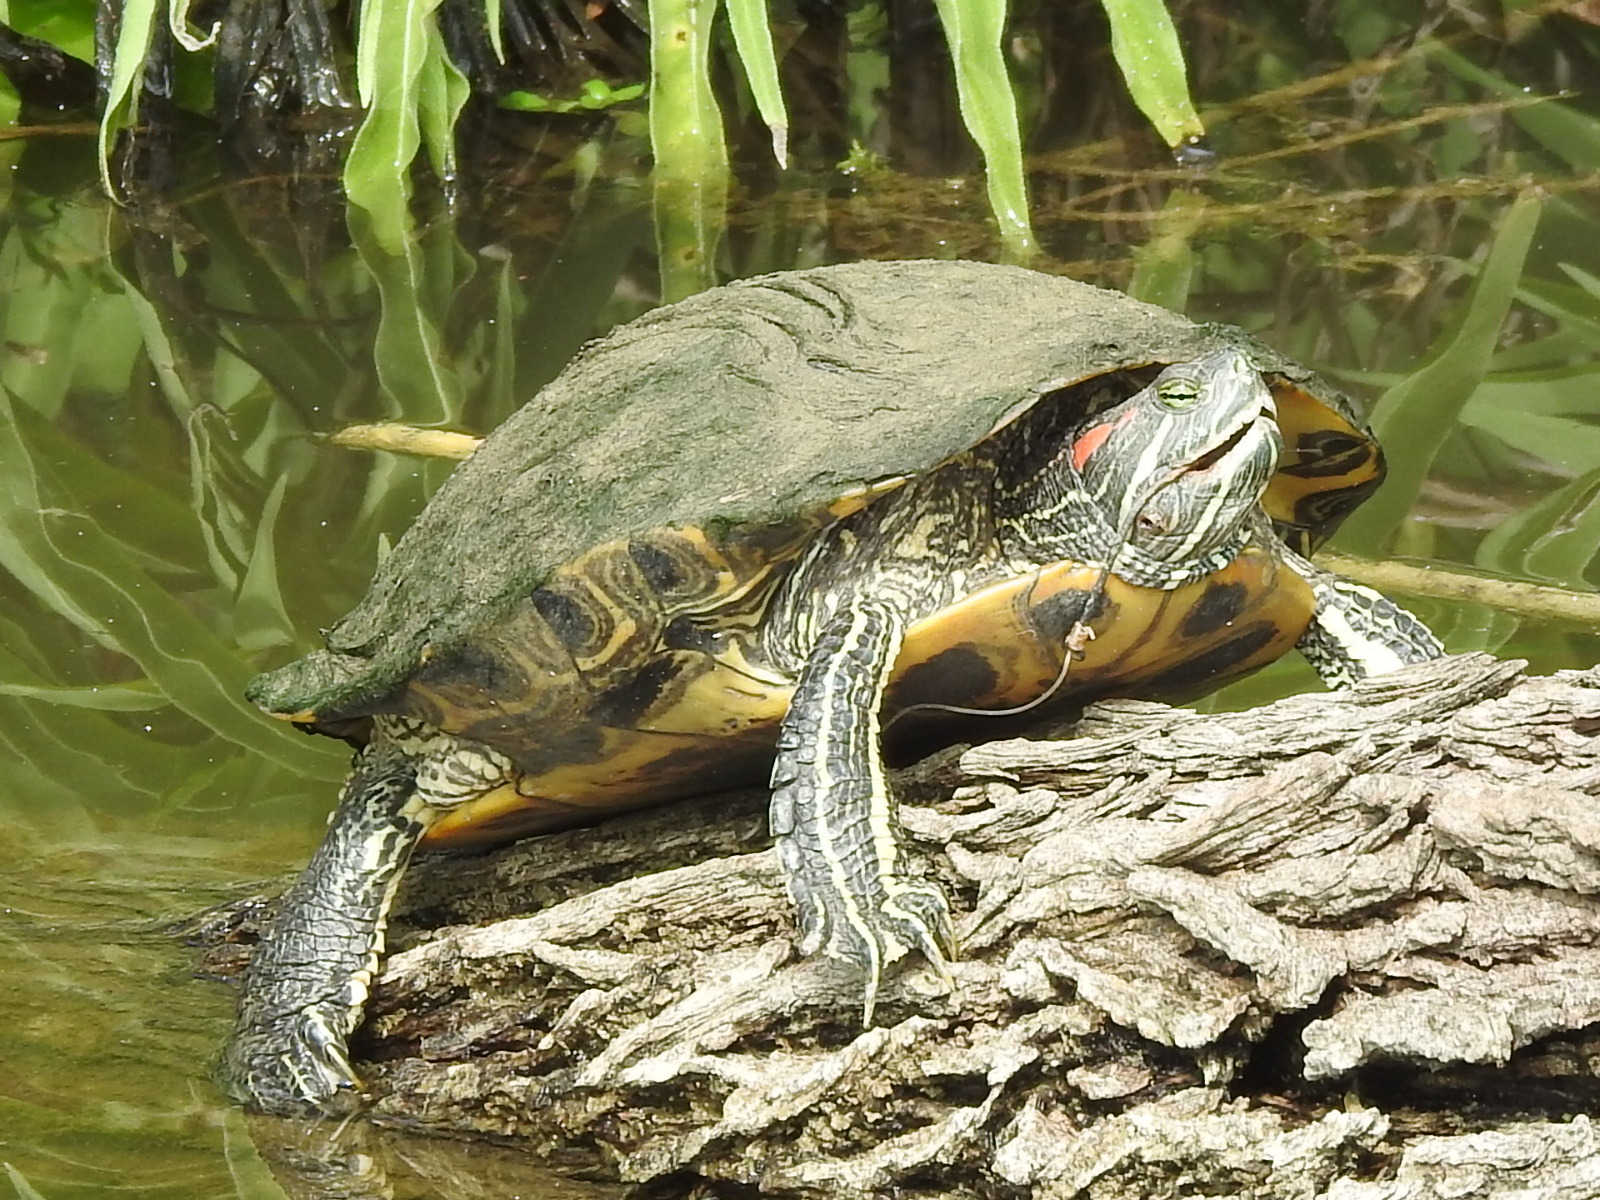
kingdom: Animalia
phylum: Chordata
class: Testudines
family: Emydidae
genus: Trachemys
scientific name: Trachemys scripta
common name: Slider
